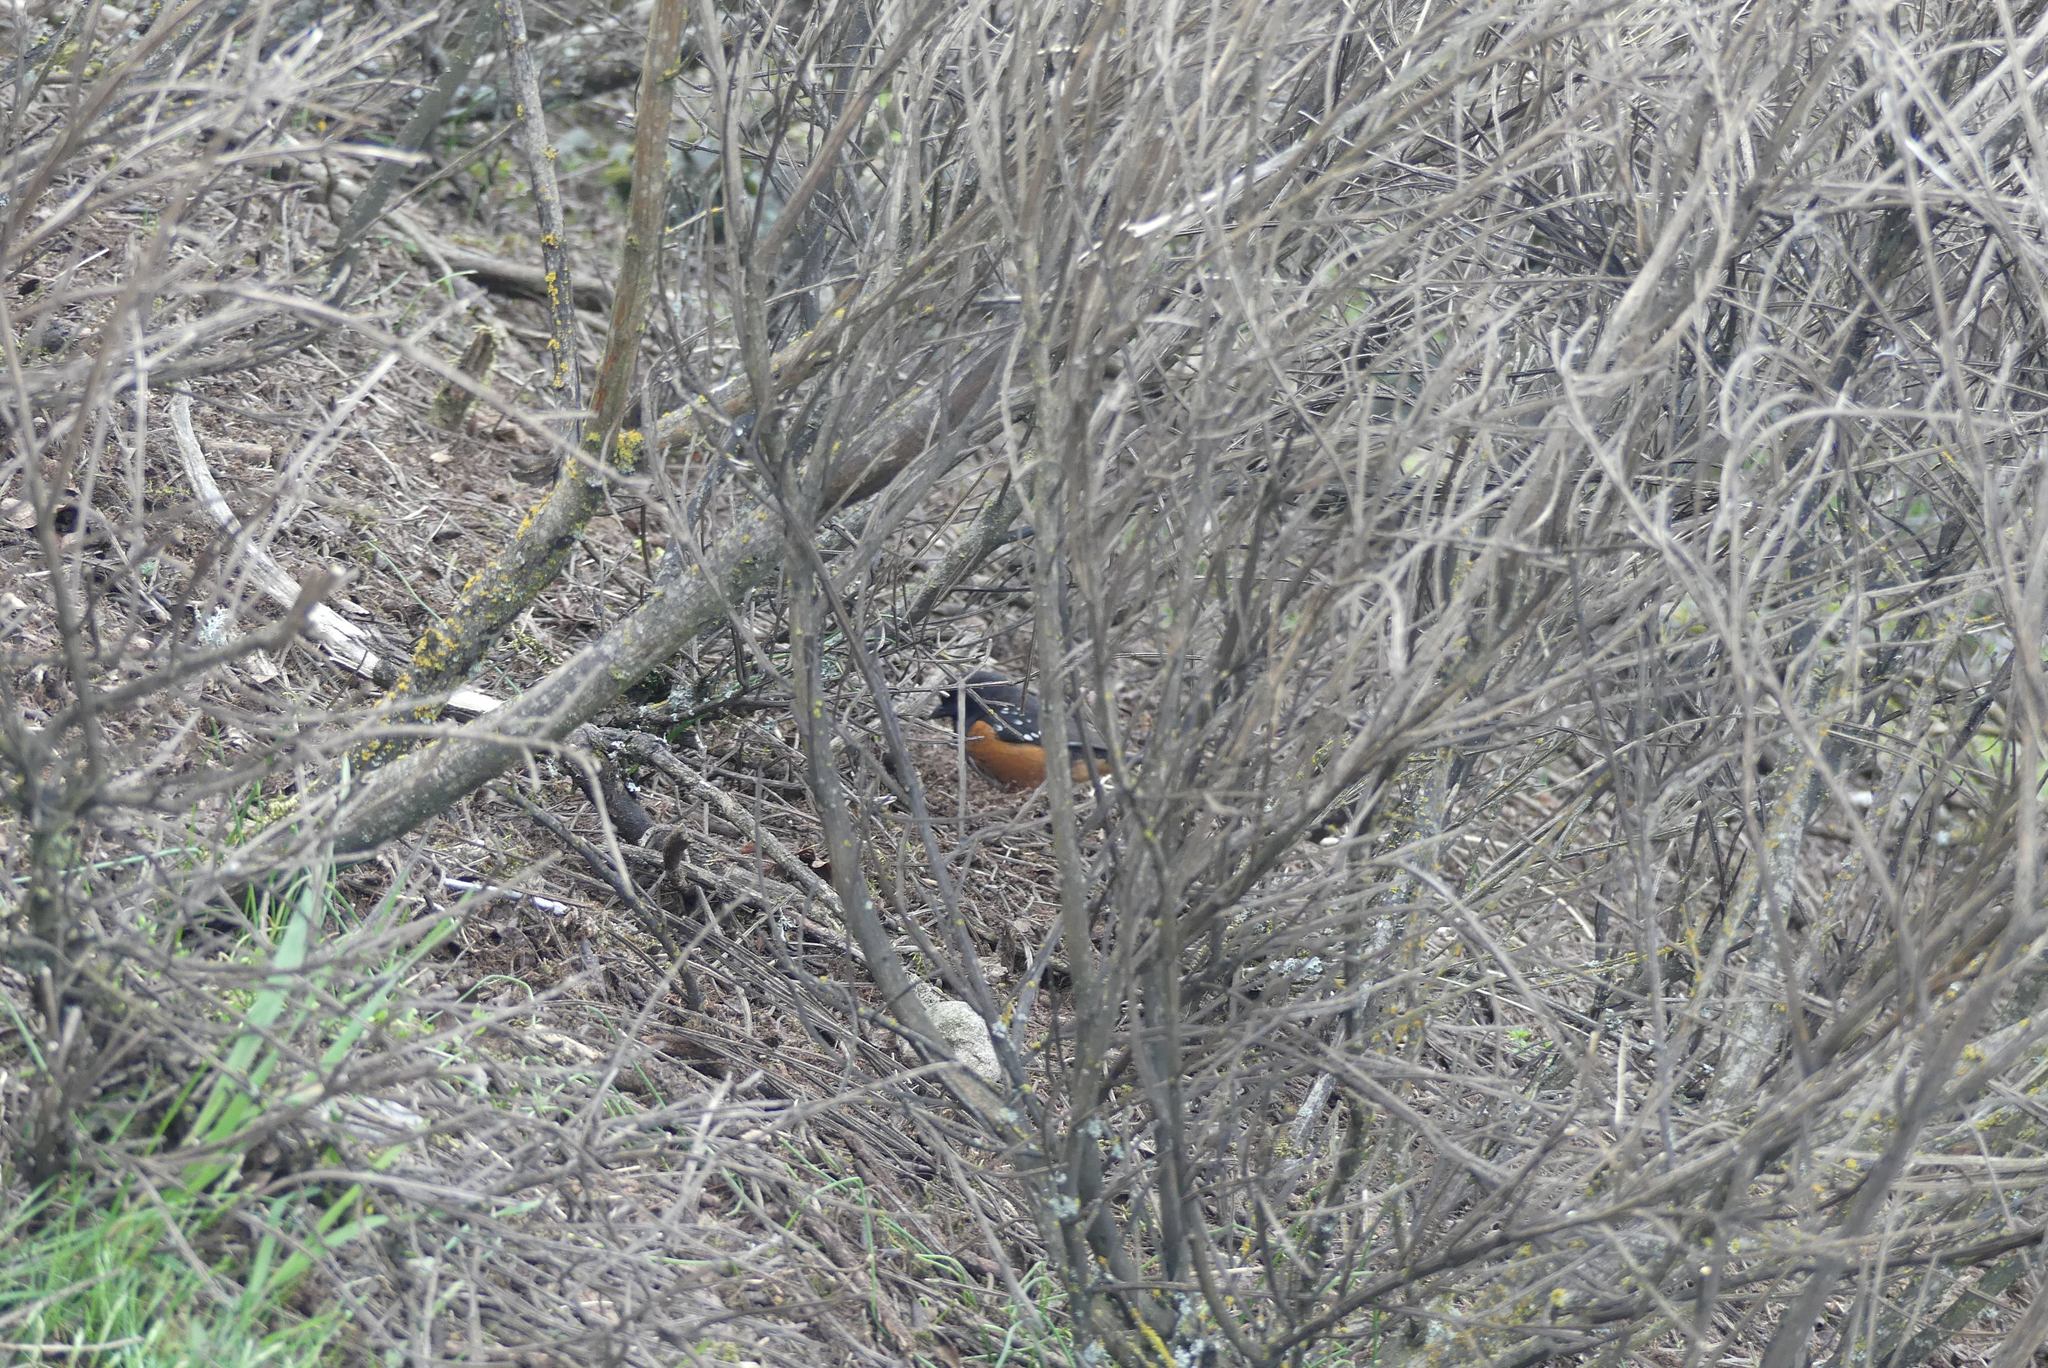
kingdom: Animalia
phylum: Chordata
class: Aves
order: Passeriformes
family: Passerellidae
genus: Pipilo
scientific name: Pipilo maculatus
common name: Spotted towhee
